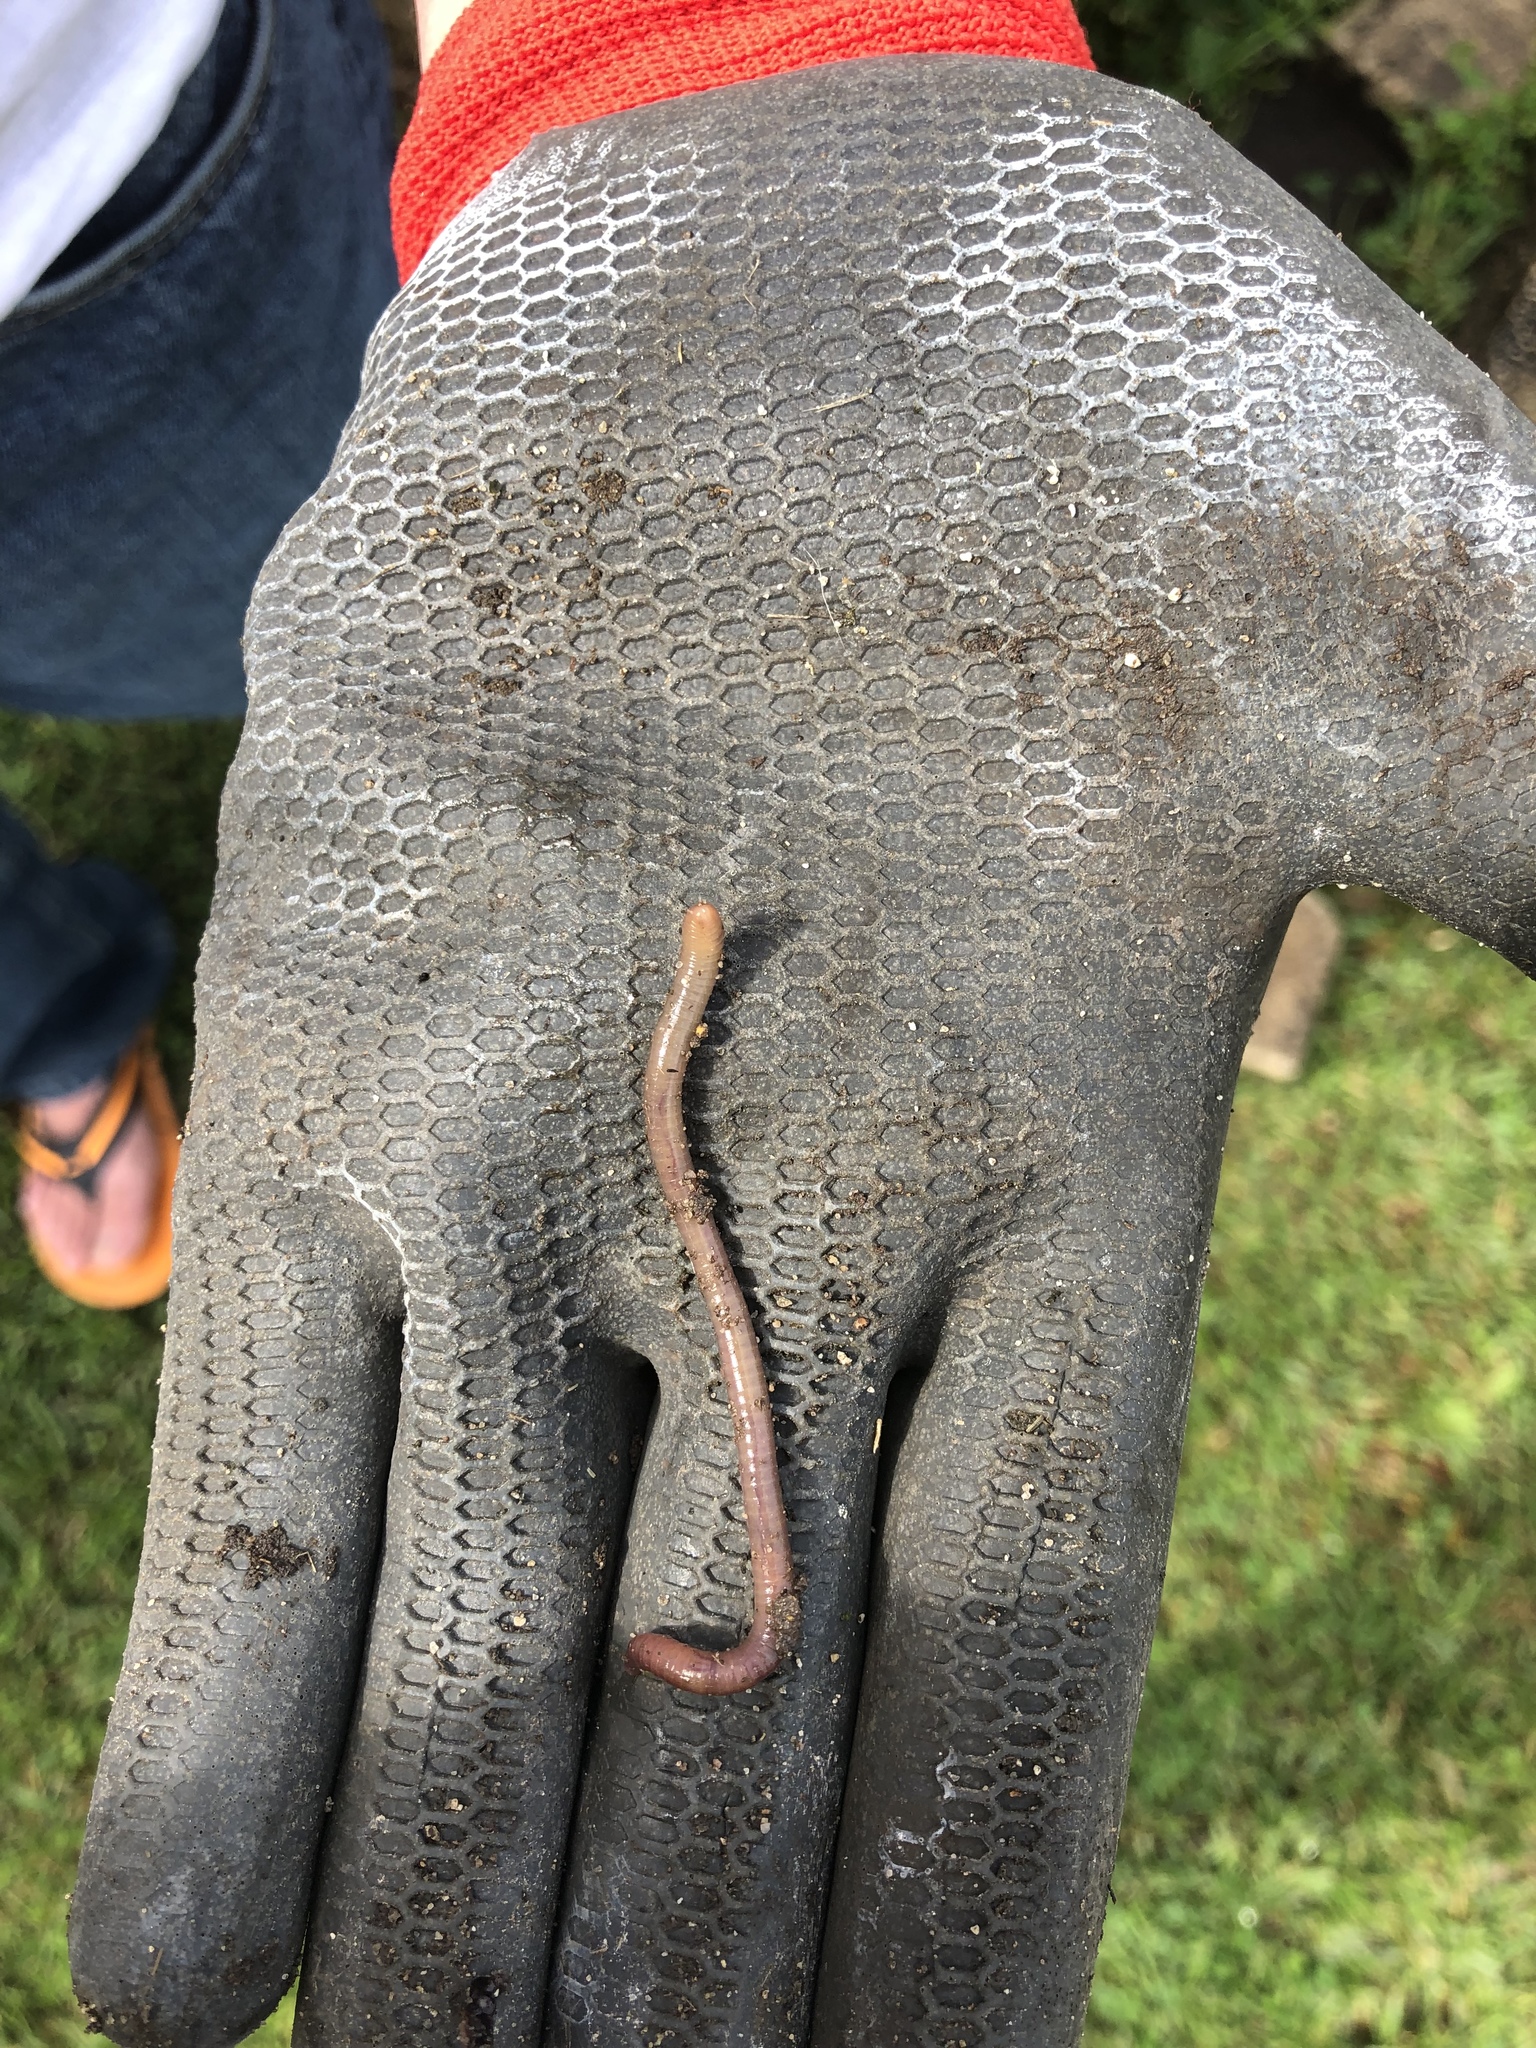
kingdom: Animalia
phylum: Annelida
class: Clitellata
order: Crassiclitellata
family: Lumbricidae
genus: Lumbricus
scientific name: Lumbricus terrestris
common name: Common earthworm
